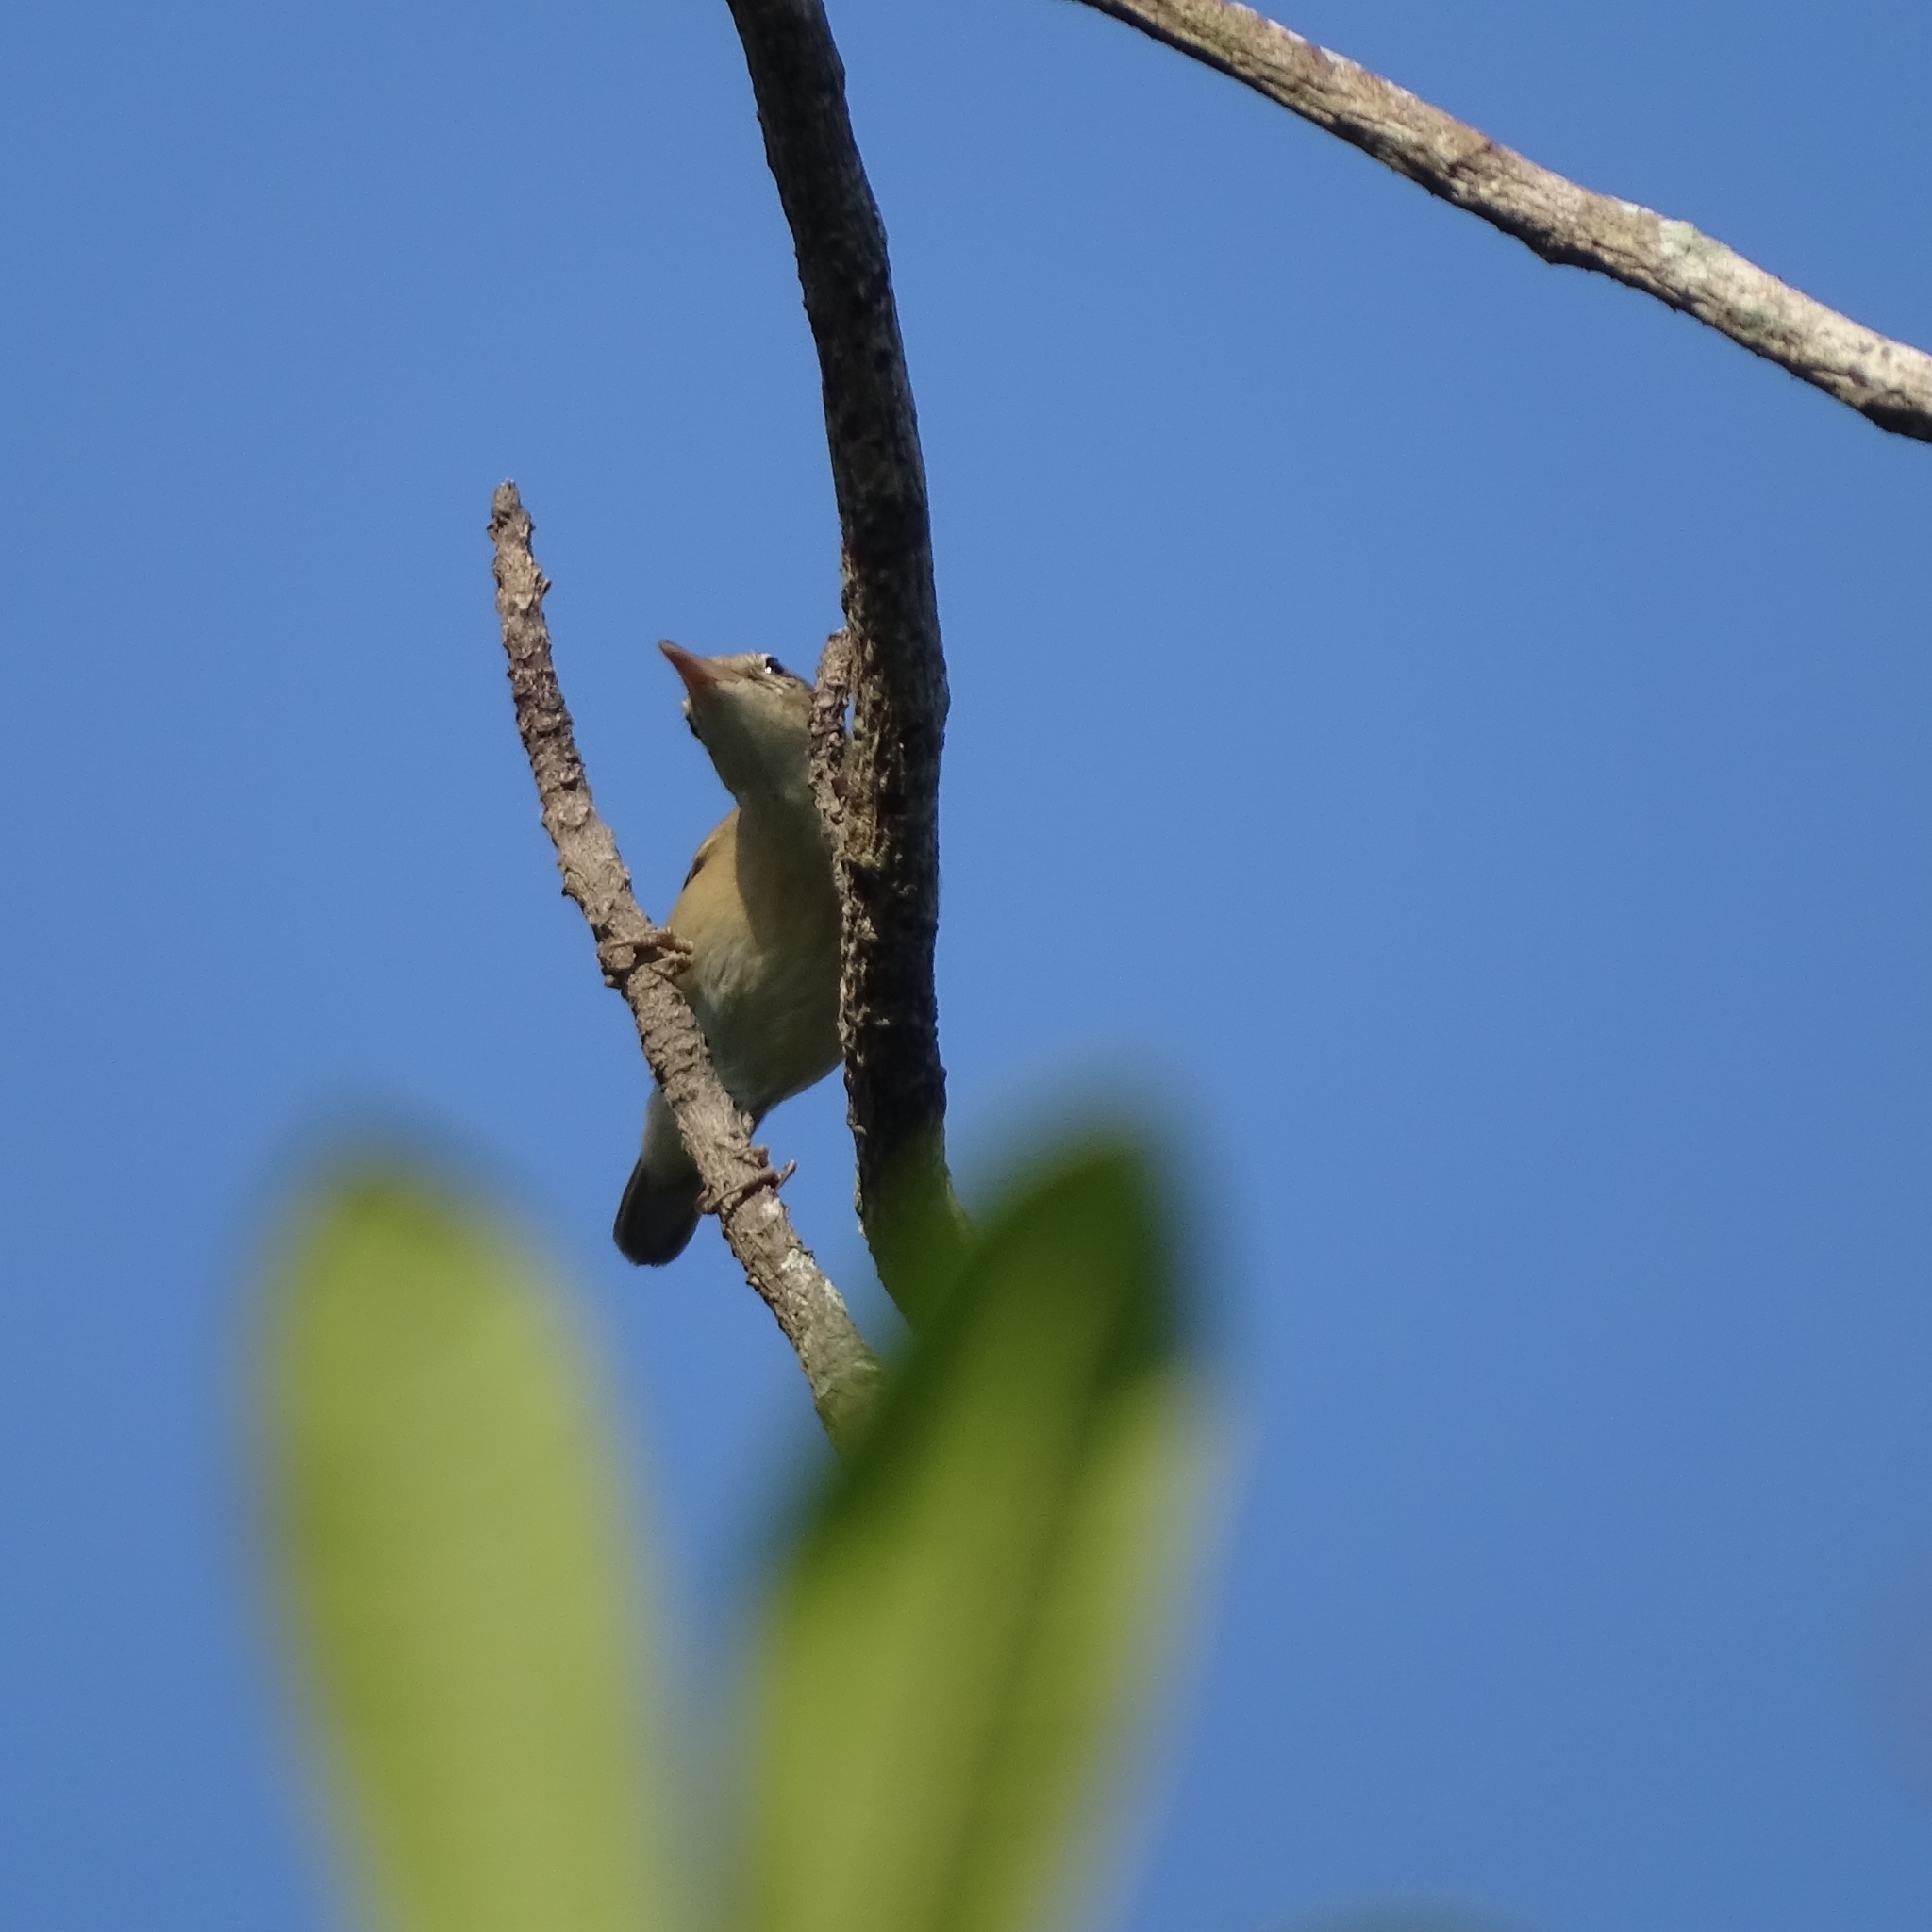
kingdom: Animalia
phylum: Chordata
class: Aves
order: Passeriformes
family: Acrocephalidae
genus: Iduna
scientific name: Iduna rama
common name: Sykes's warbler
